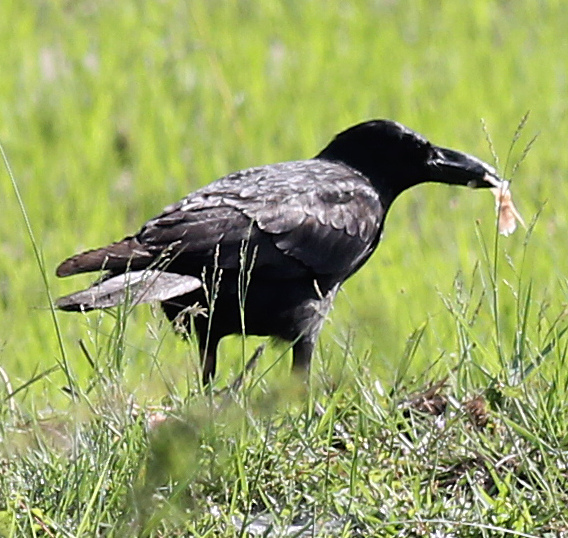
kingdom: Animalia
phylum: Chordata
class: Aves
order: Passeriformes
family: Corvidae
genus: Corvus
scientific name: Corvus macrorhynchos
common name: Large-billed crow
